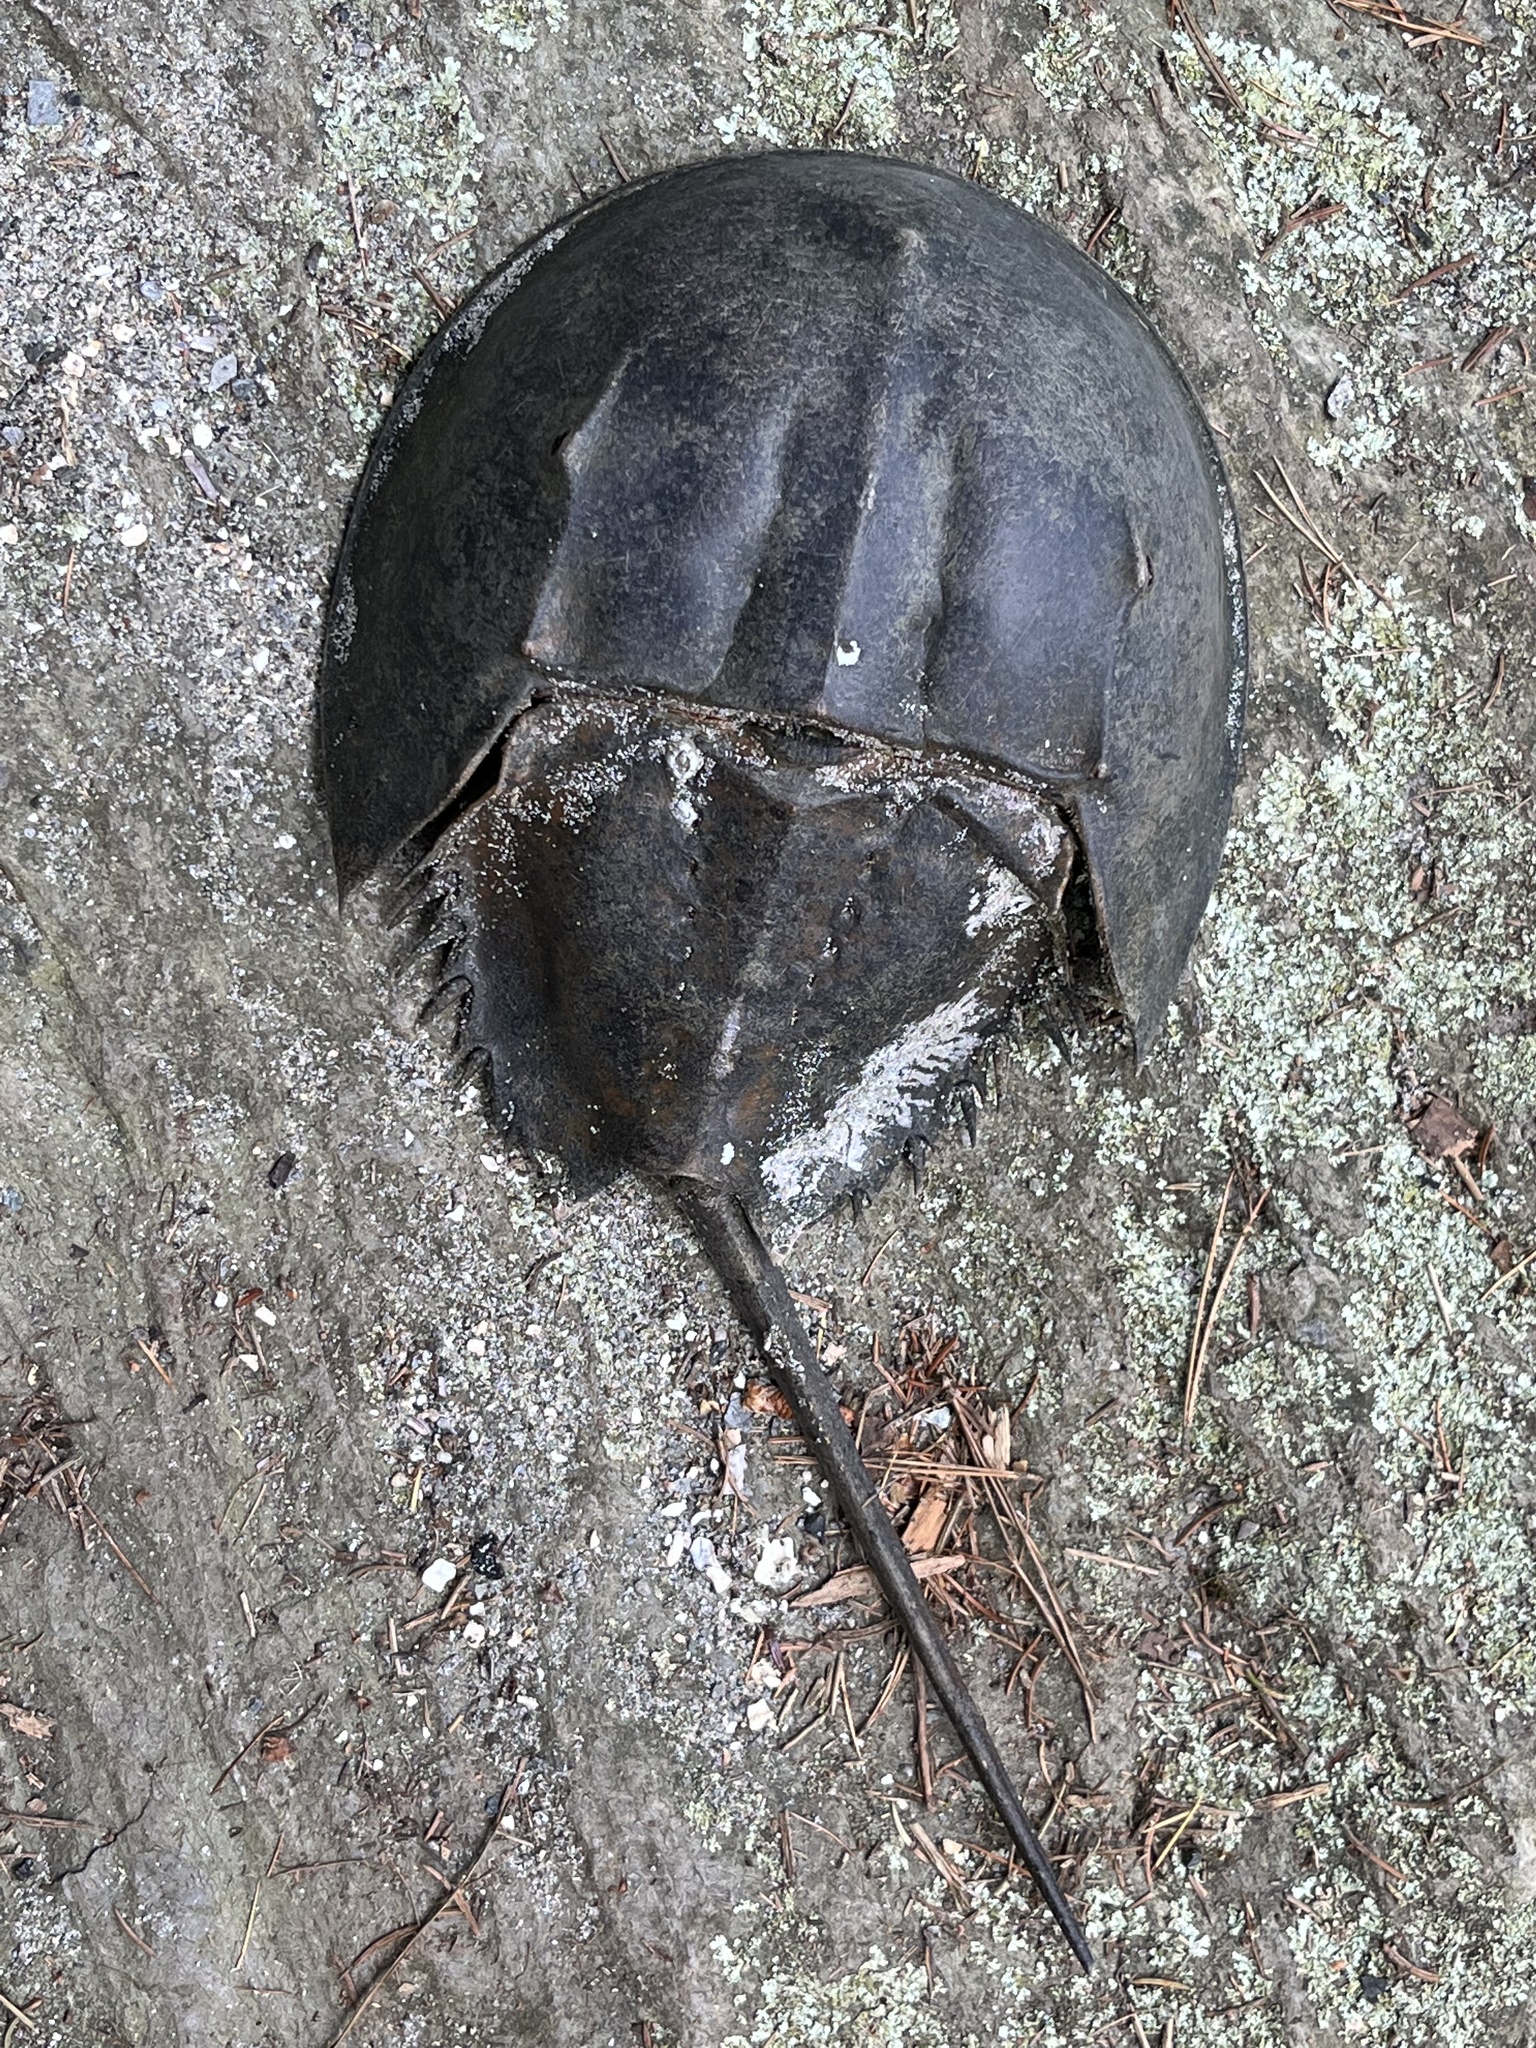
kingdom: Animalia
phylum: Arthropoda
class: Merostomata
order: Xiphosurida
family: Limulidae
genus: Limulus
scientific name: Limulus polyphemus
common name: Horseshoe crab
